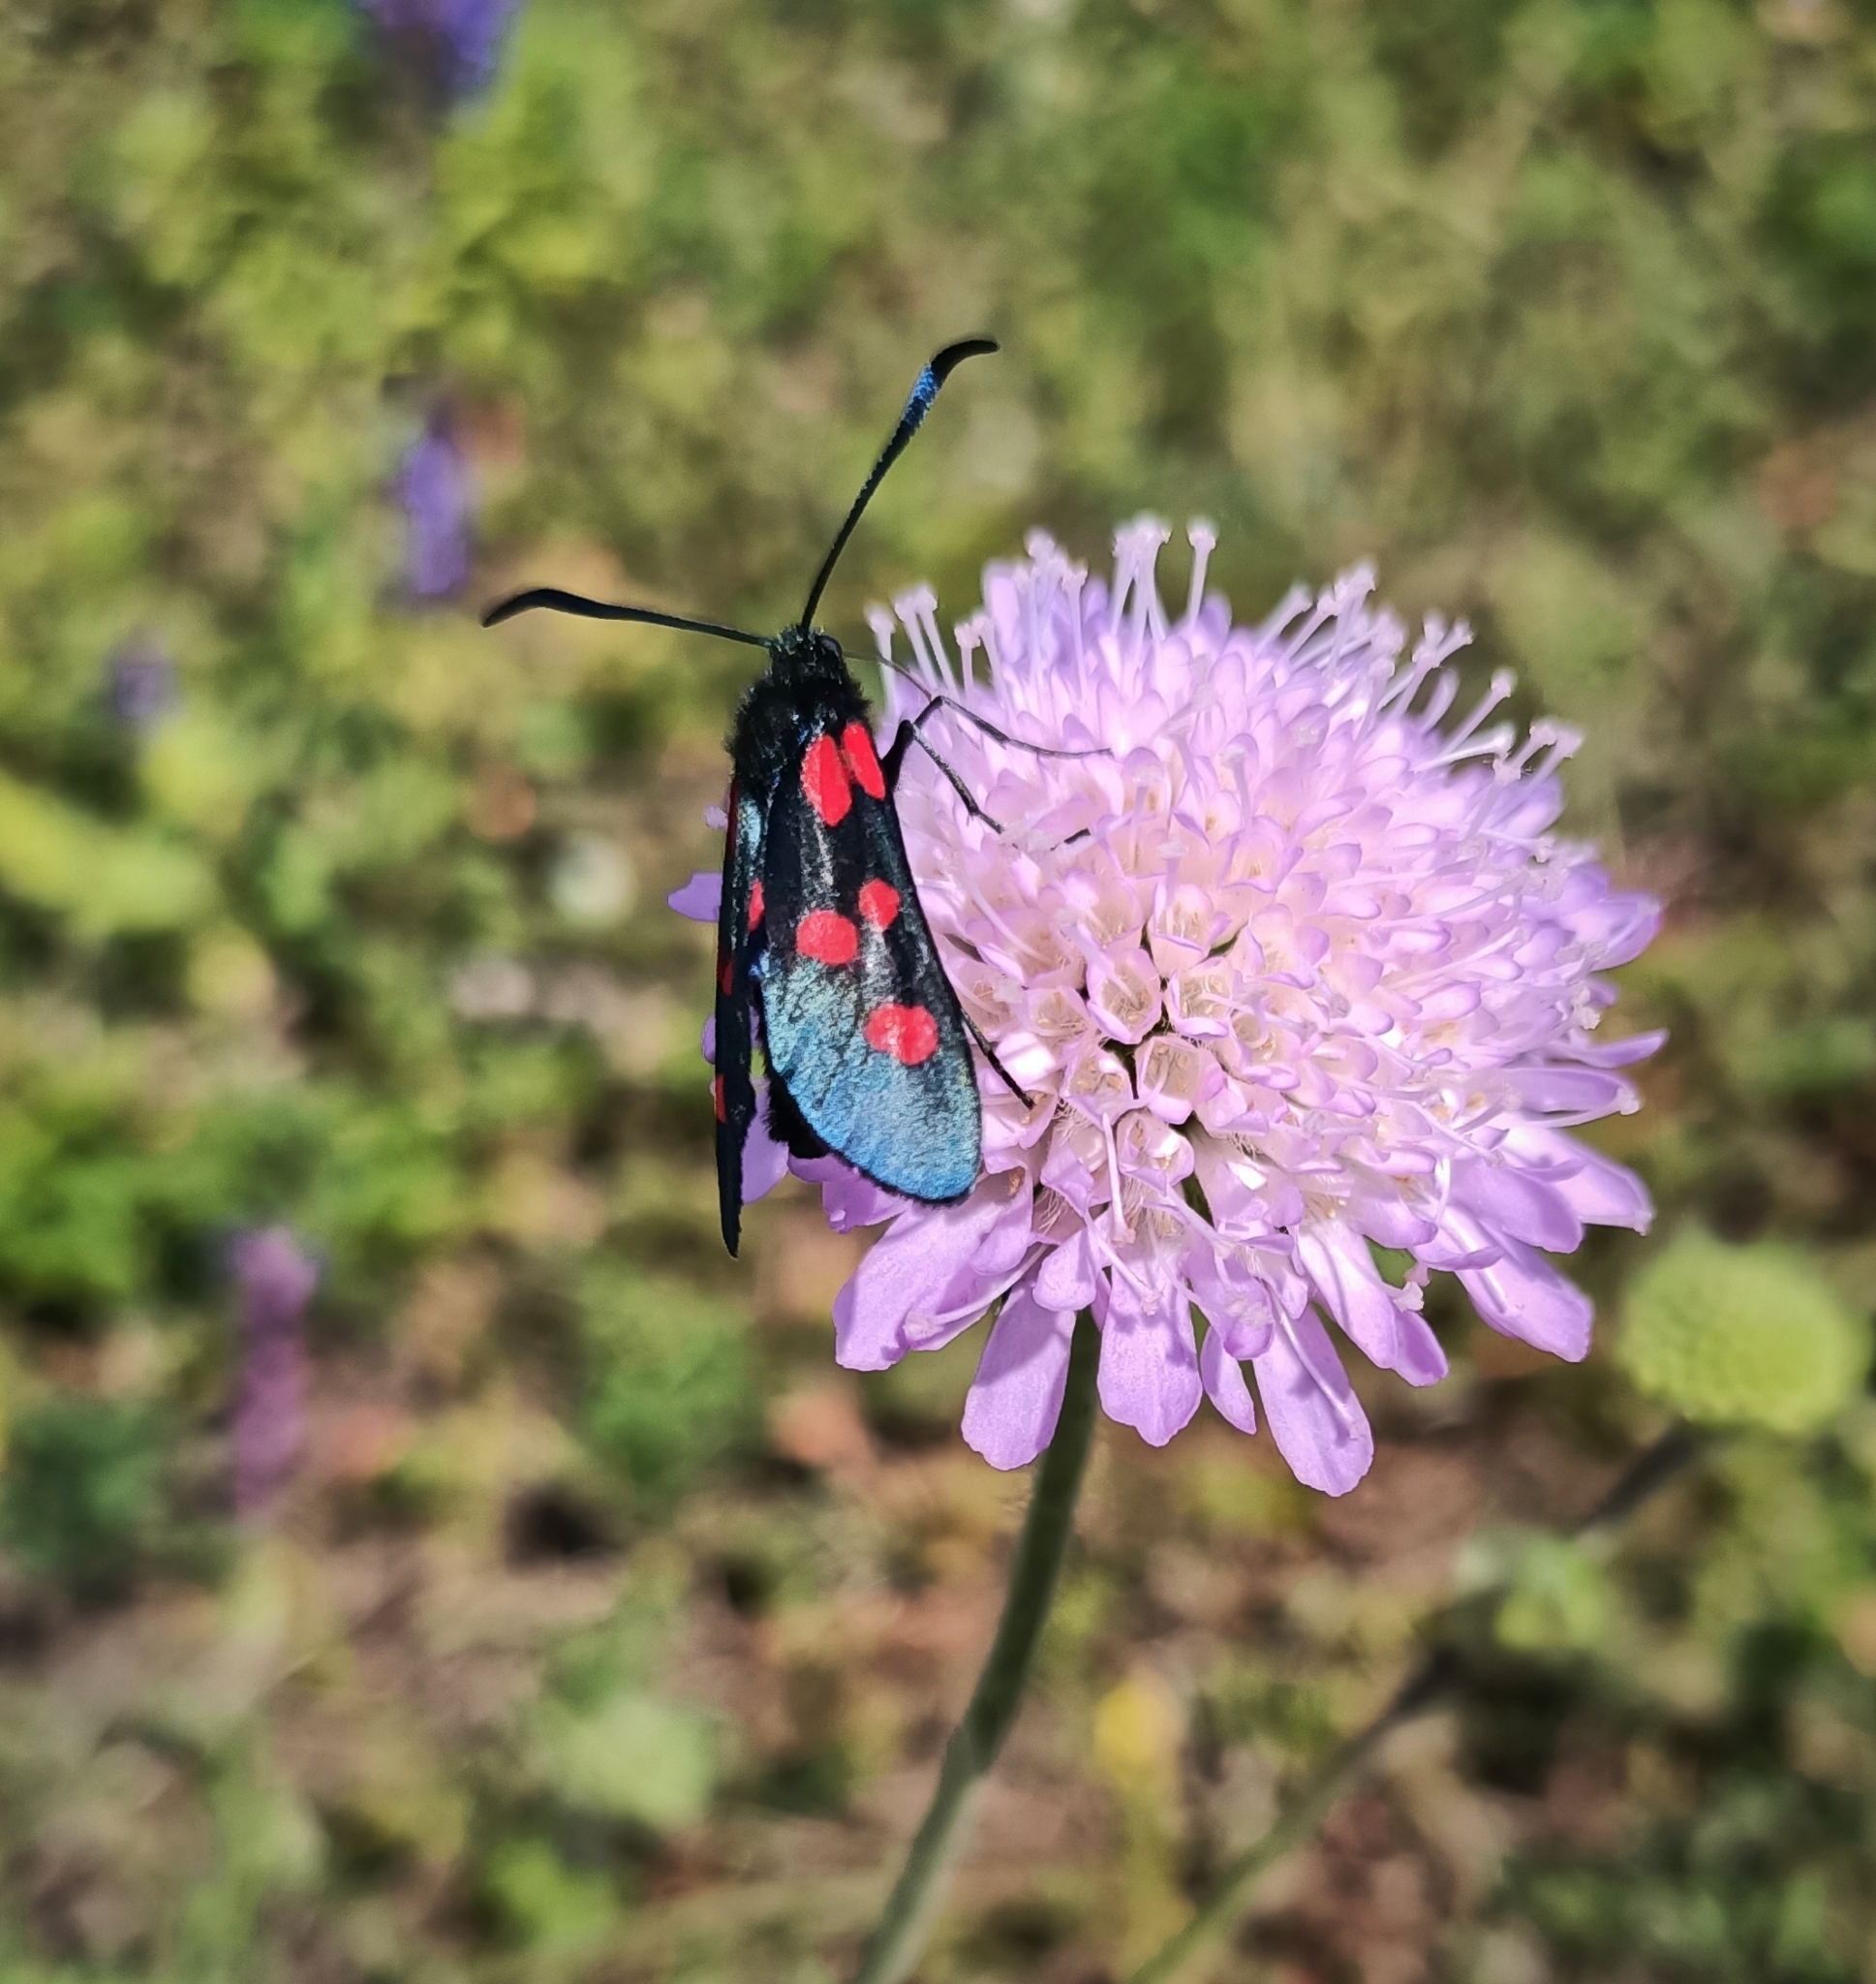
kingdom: Animalia
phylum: Arthropoda
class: Insecta
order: Lepidoptera
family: Zygaenidae
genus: Zygaena
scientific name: Zygaena lonicerae
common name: Narrow-bordered five-spot burnet
